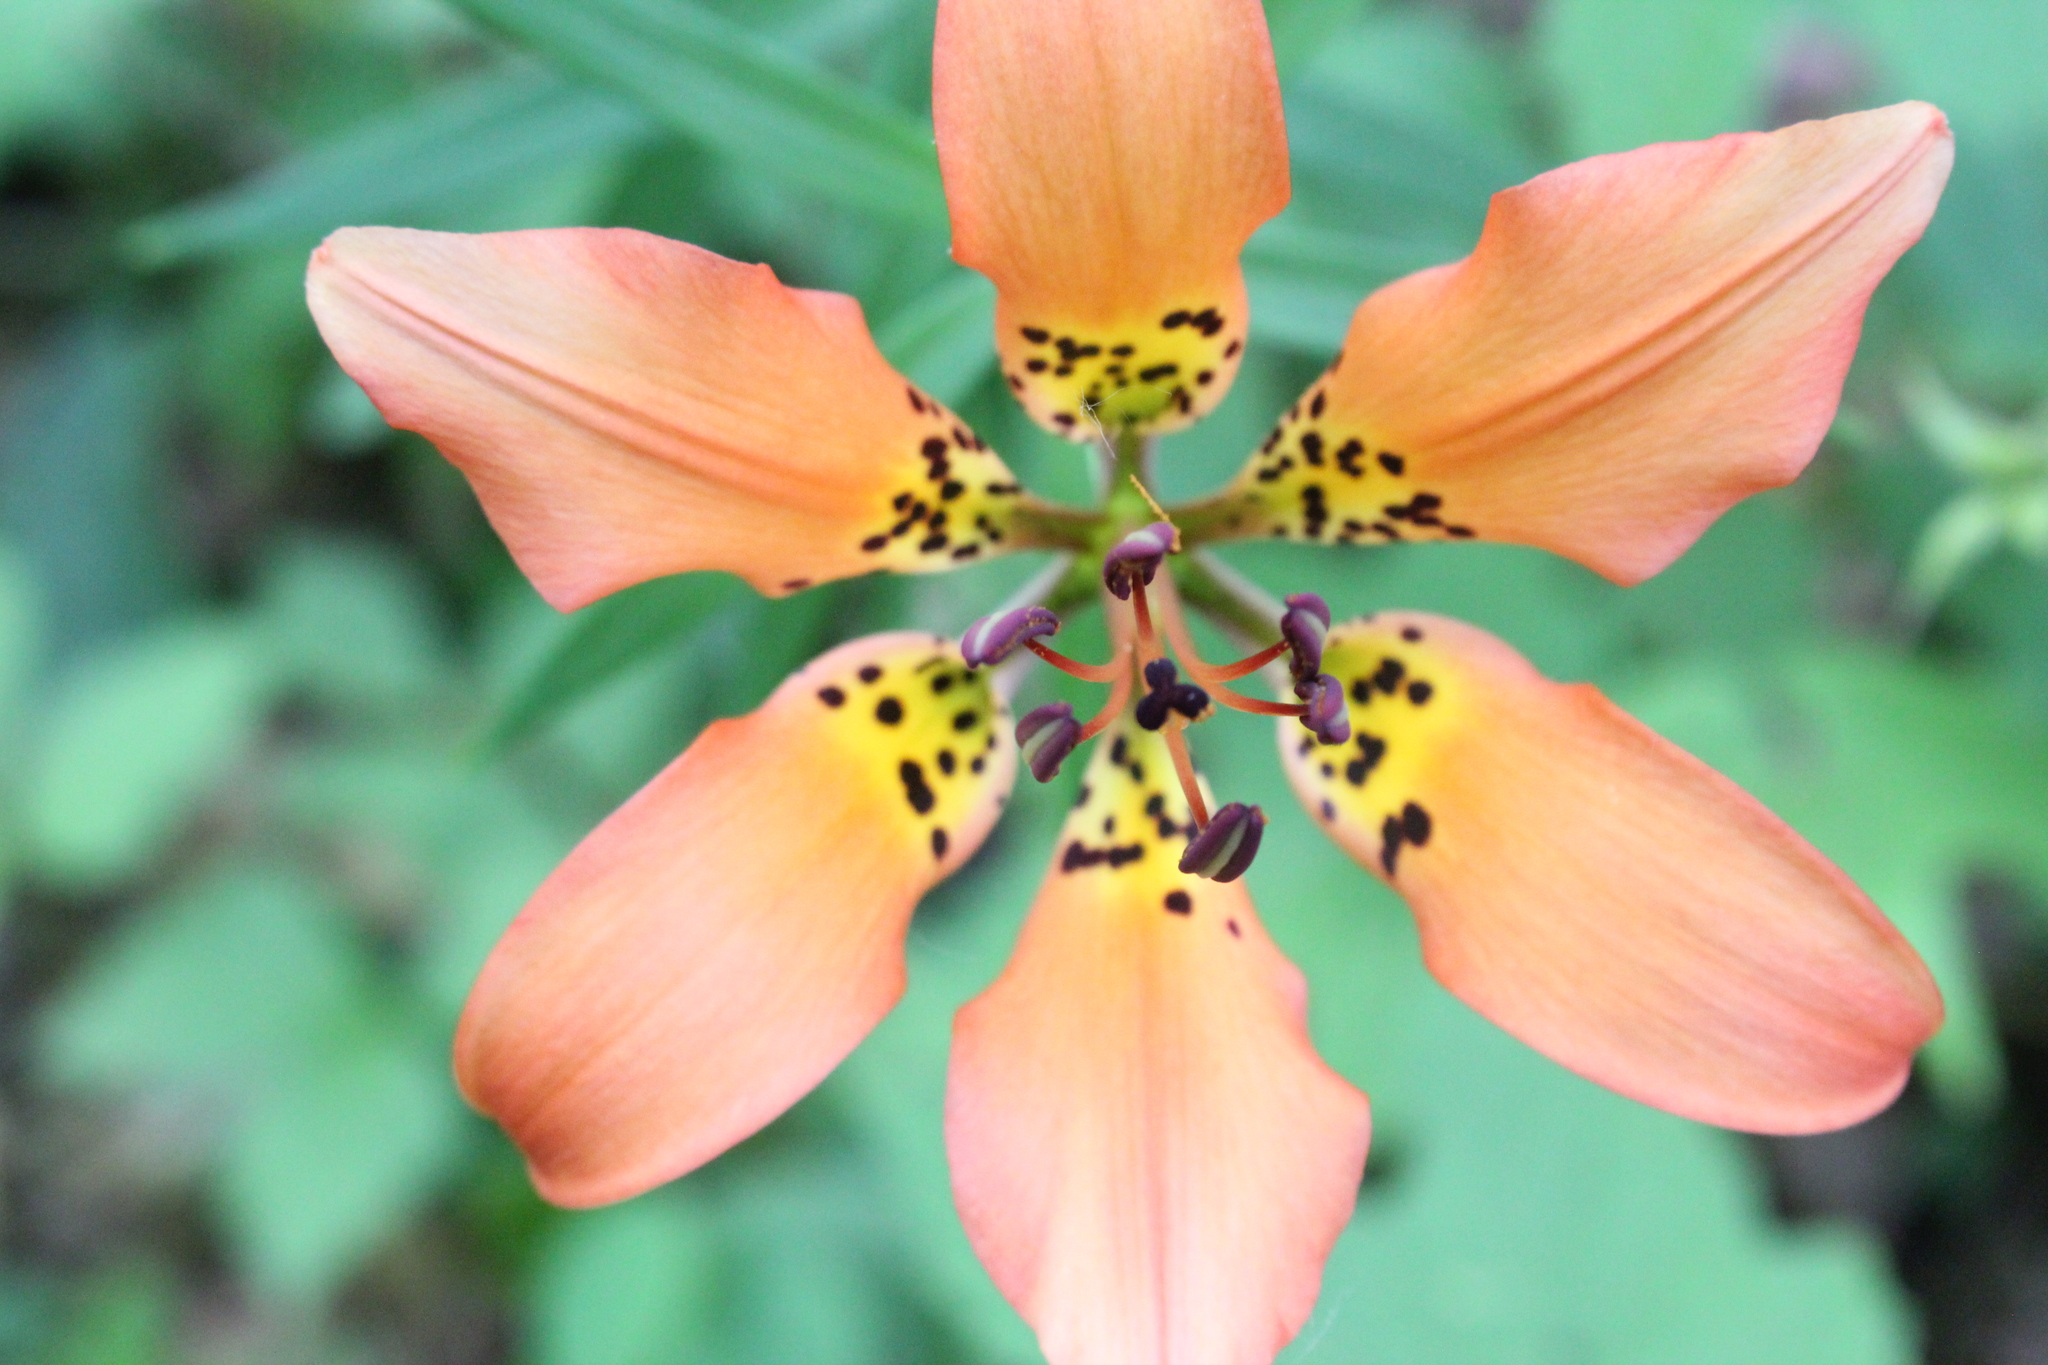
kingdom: Plantae
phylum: Tracheophyta
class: Liliopsida
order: Liliales
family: Liliaceae
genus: Lilium
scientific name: Lilium philadelphicum
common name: Red lily
